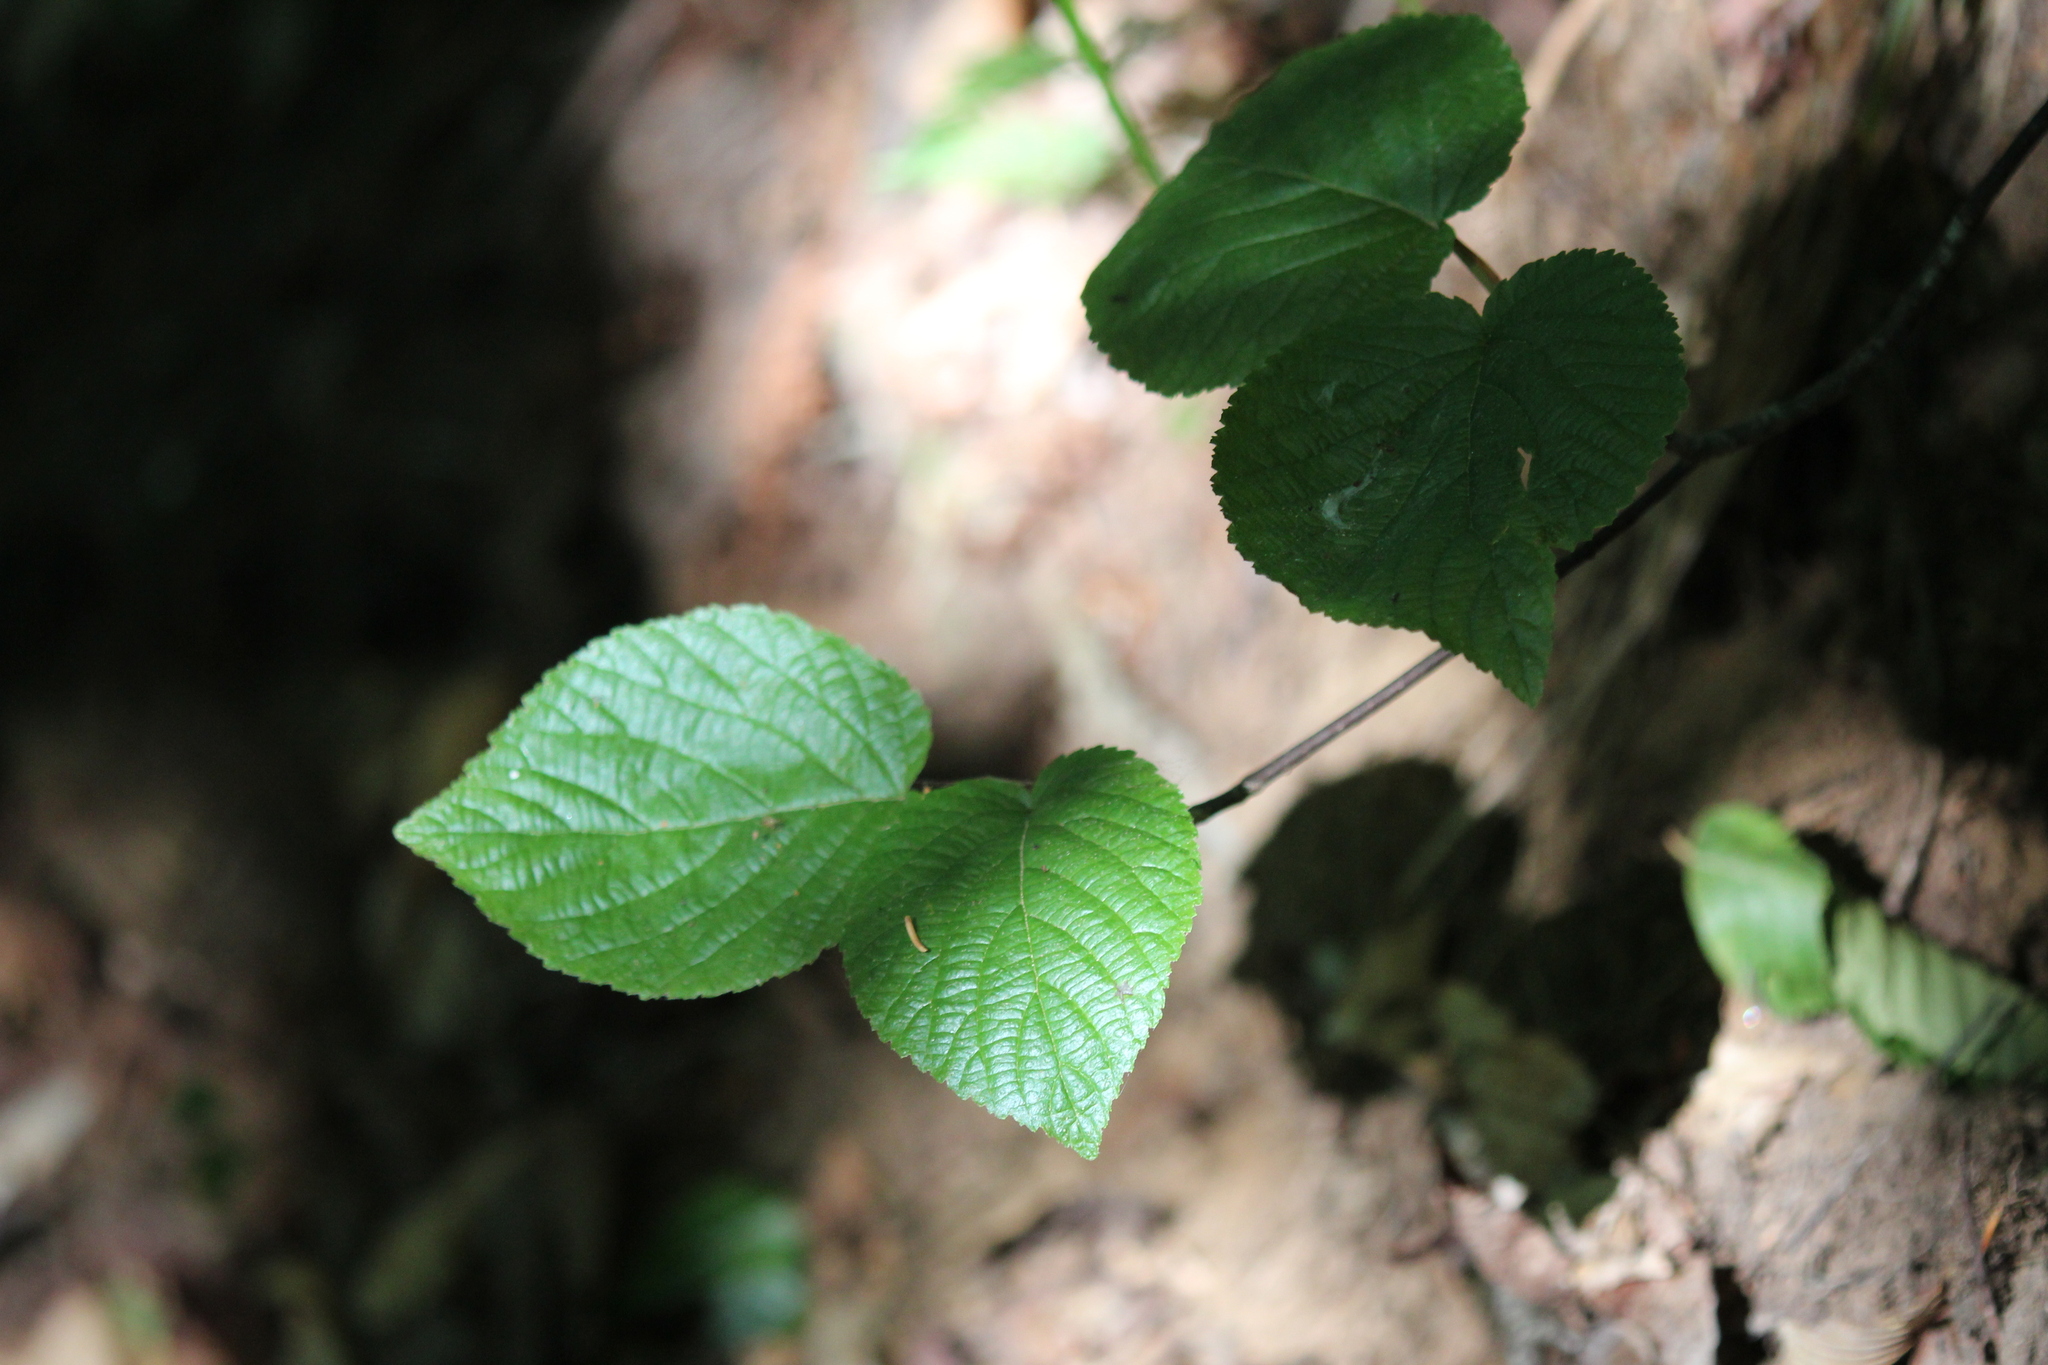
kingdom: Plantae
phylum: Tracheophyta
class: Magnoliopsida
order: Dipsacales
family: Viburnaceae
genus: Viburnum
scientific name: Viburnum lantanoides
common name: Hobblebush
